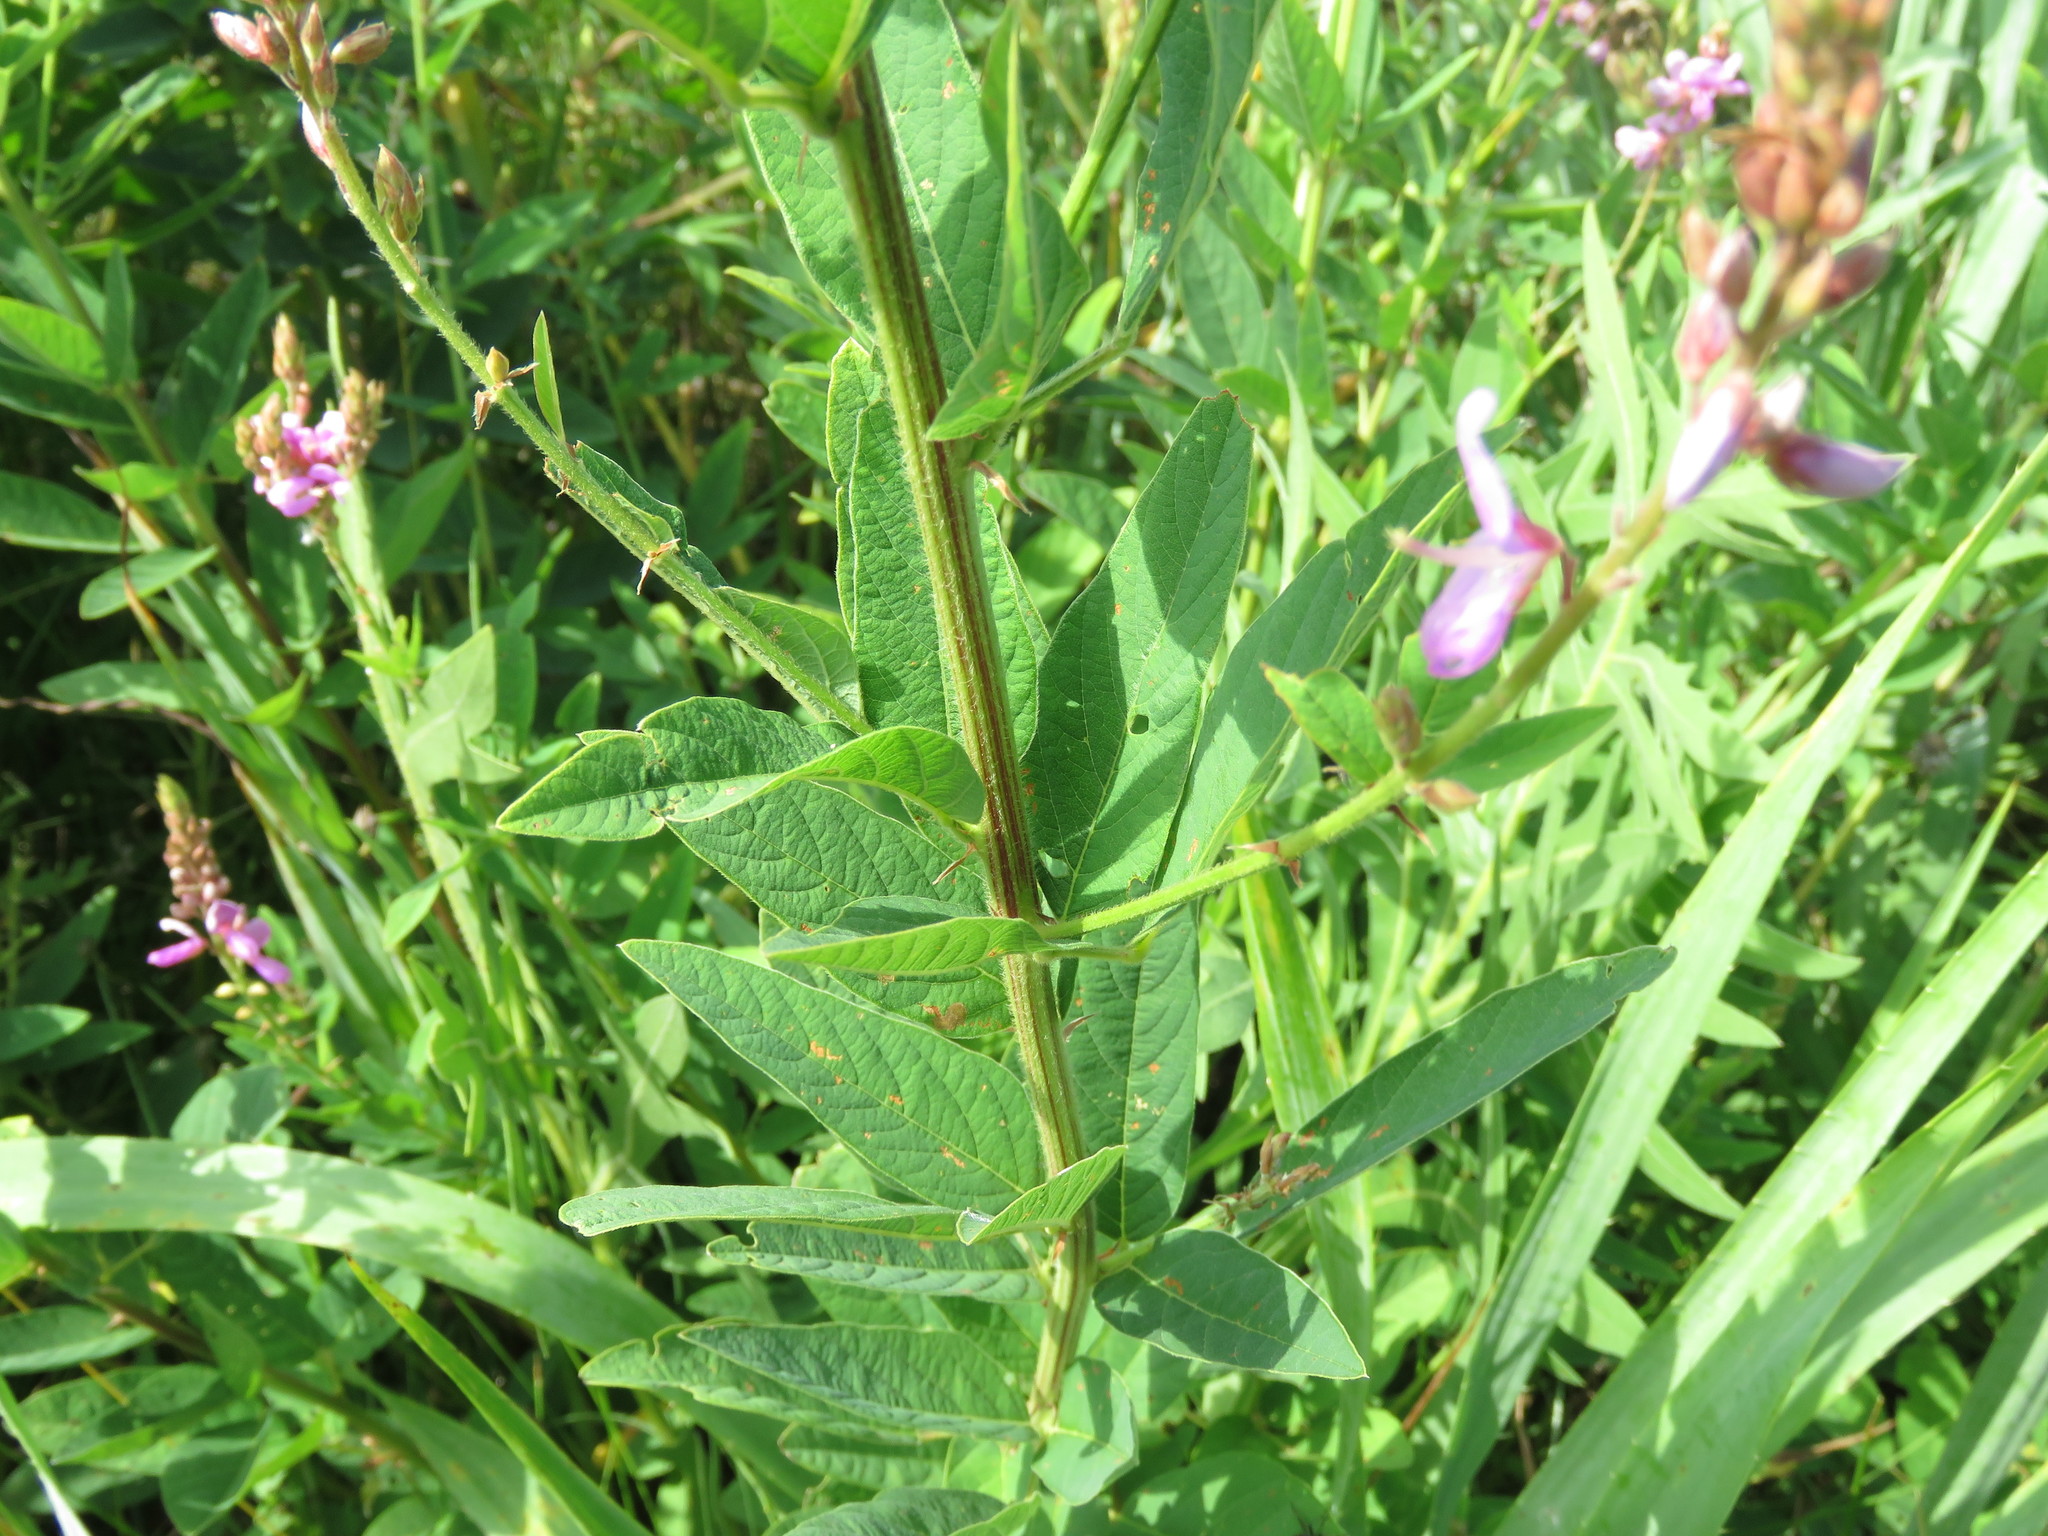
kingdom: Plantae
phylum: Tracheophyta
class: Magnoliopsida
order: Fabales
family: Fabaceae
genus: Desmodium
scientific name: Desmodium canadense
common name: Canada tick-trefoil
